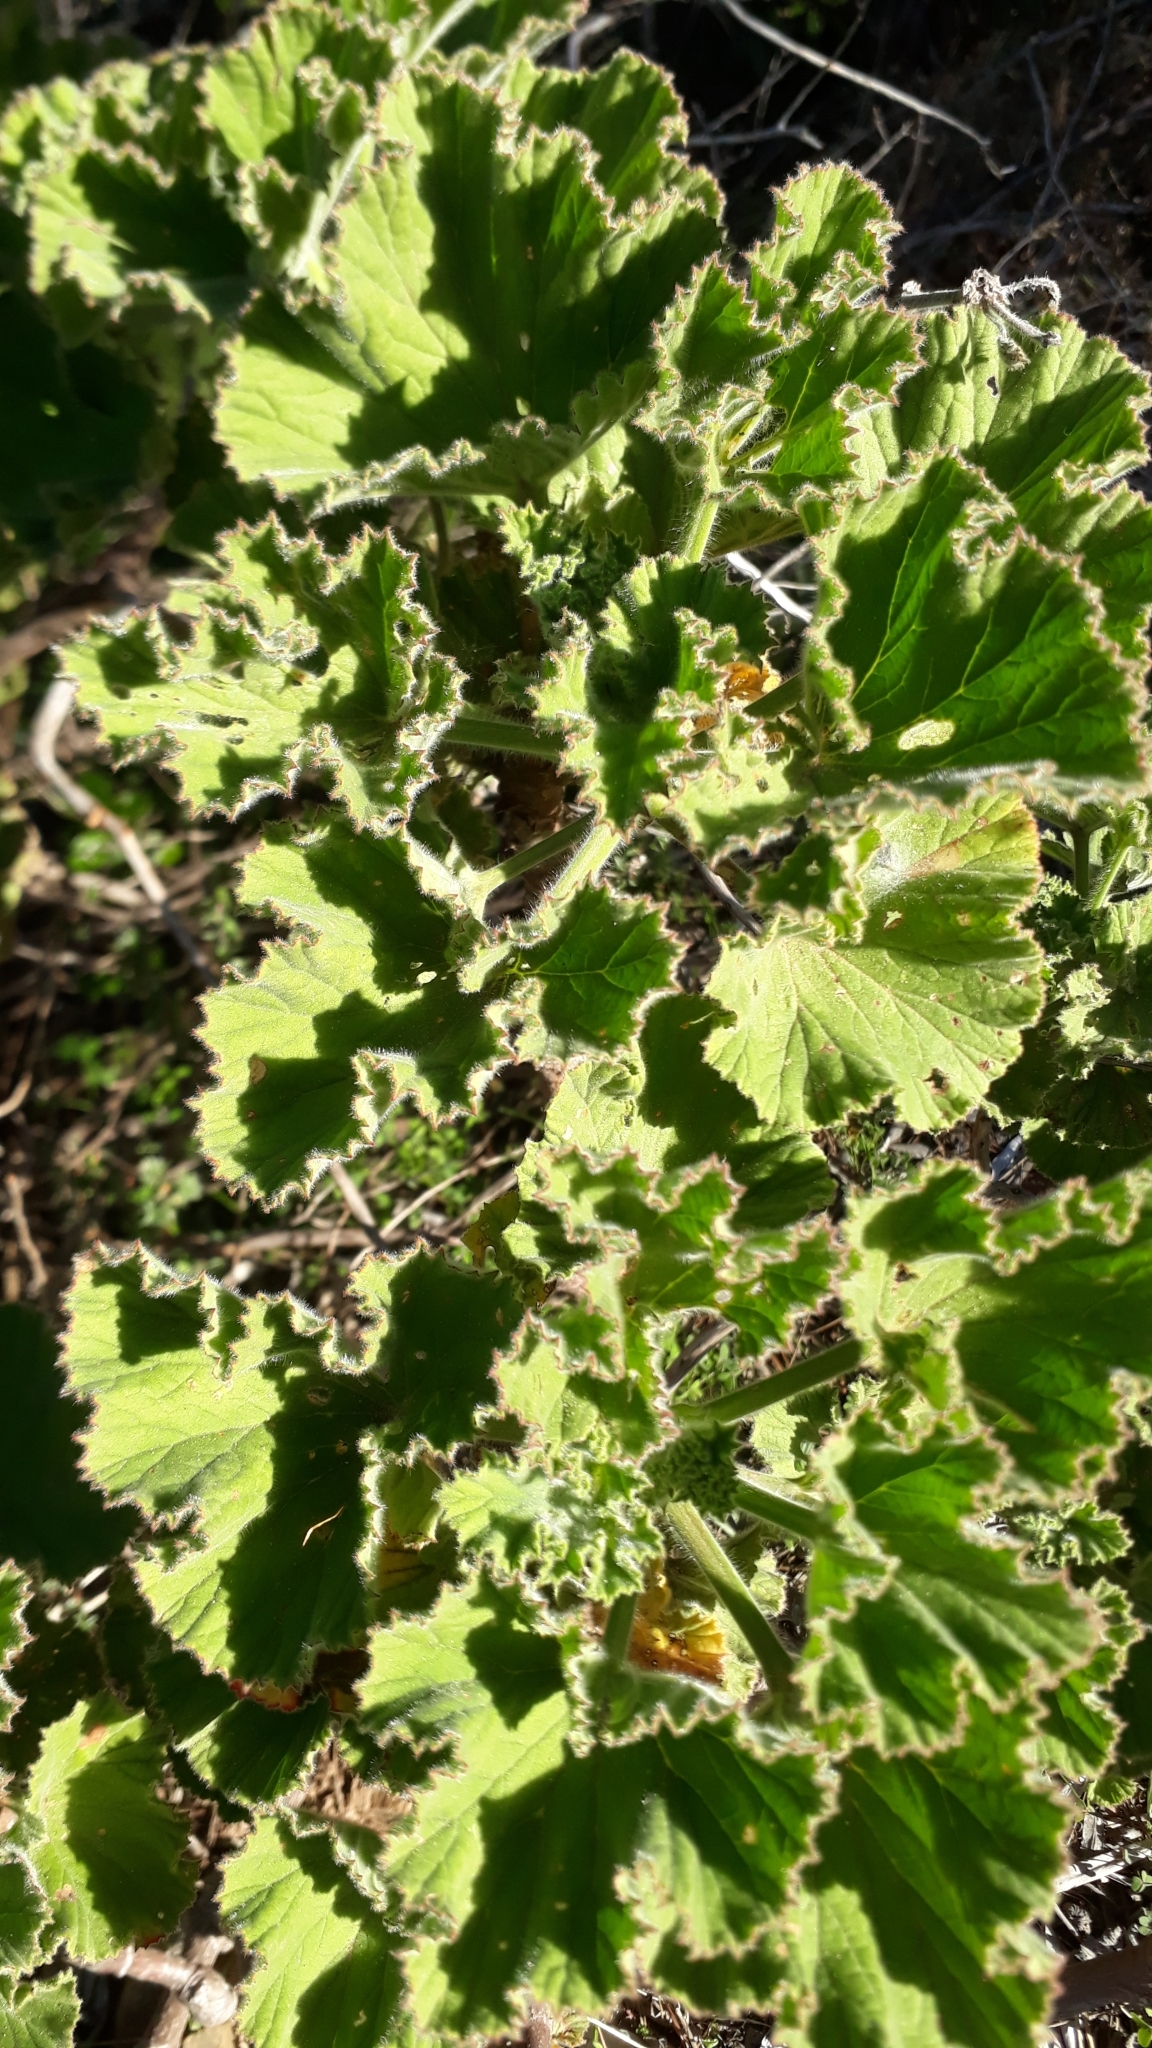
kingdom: Plantae
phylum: Tracheophyta
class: Magnoliopsida
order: Geraniales
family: Geraniaceae
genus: Pelargonium
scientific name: Pelargonium cucullatum
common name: Tree pelargonium
